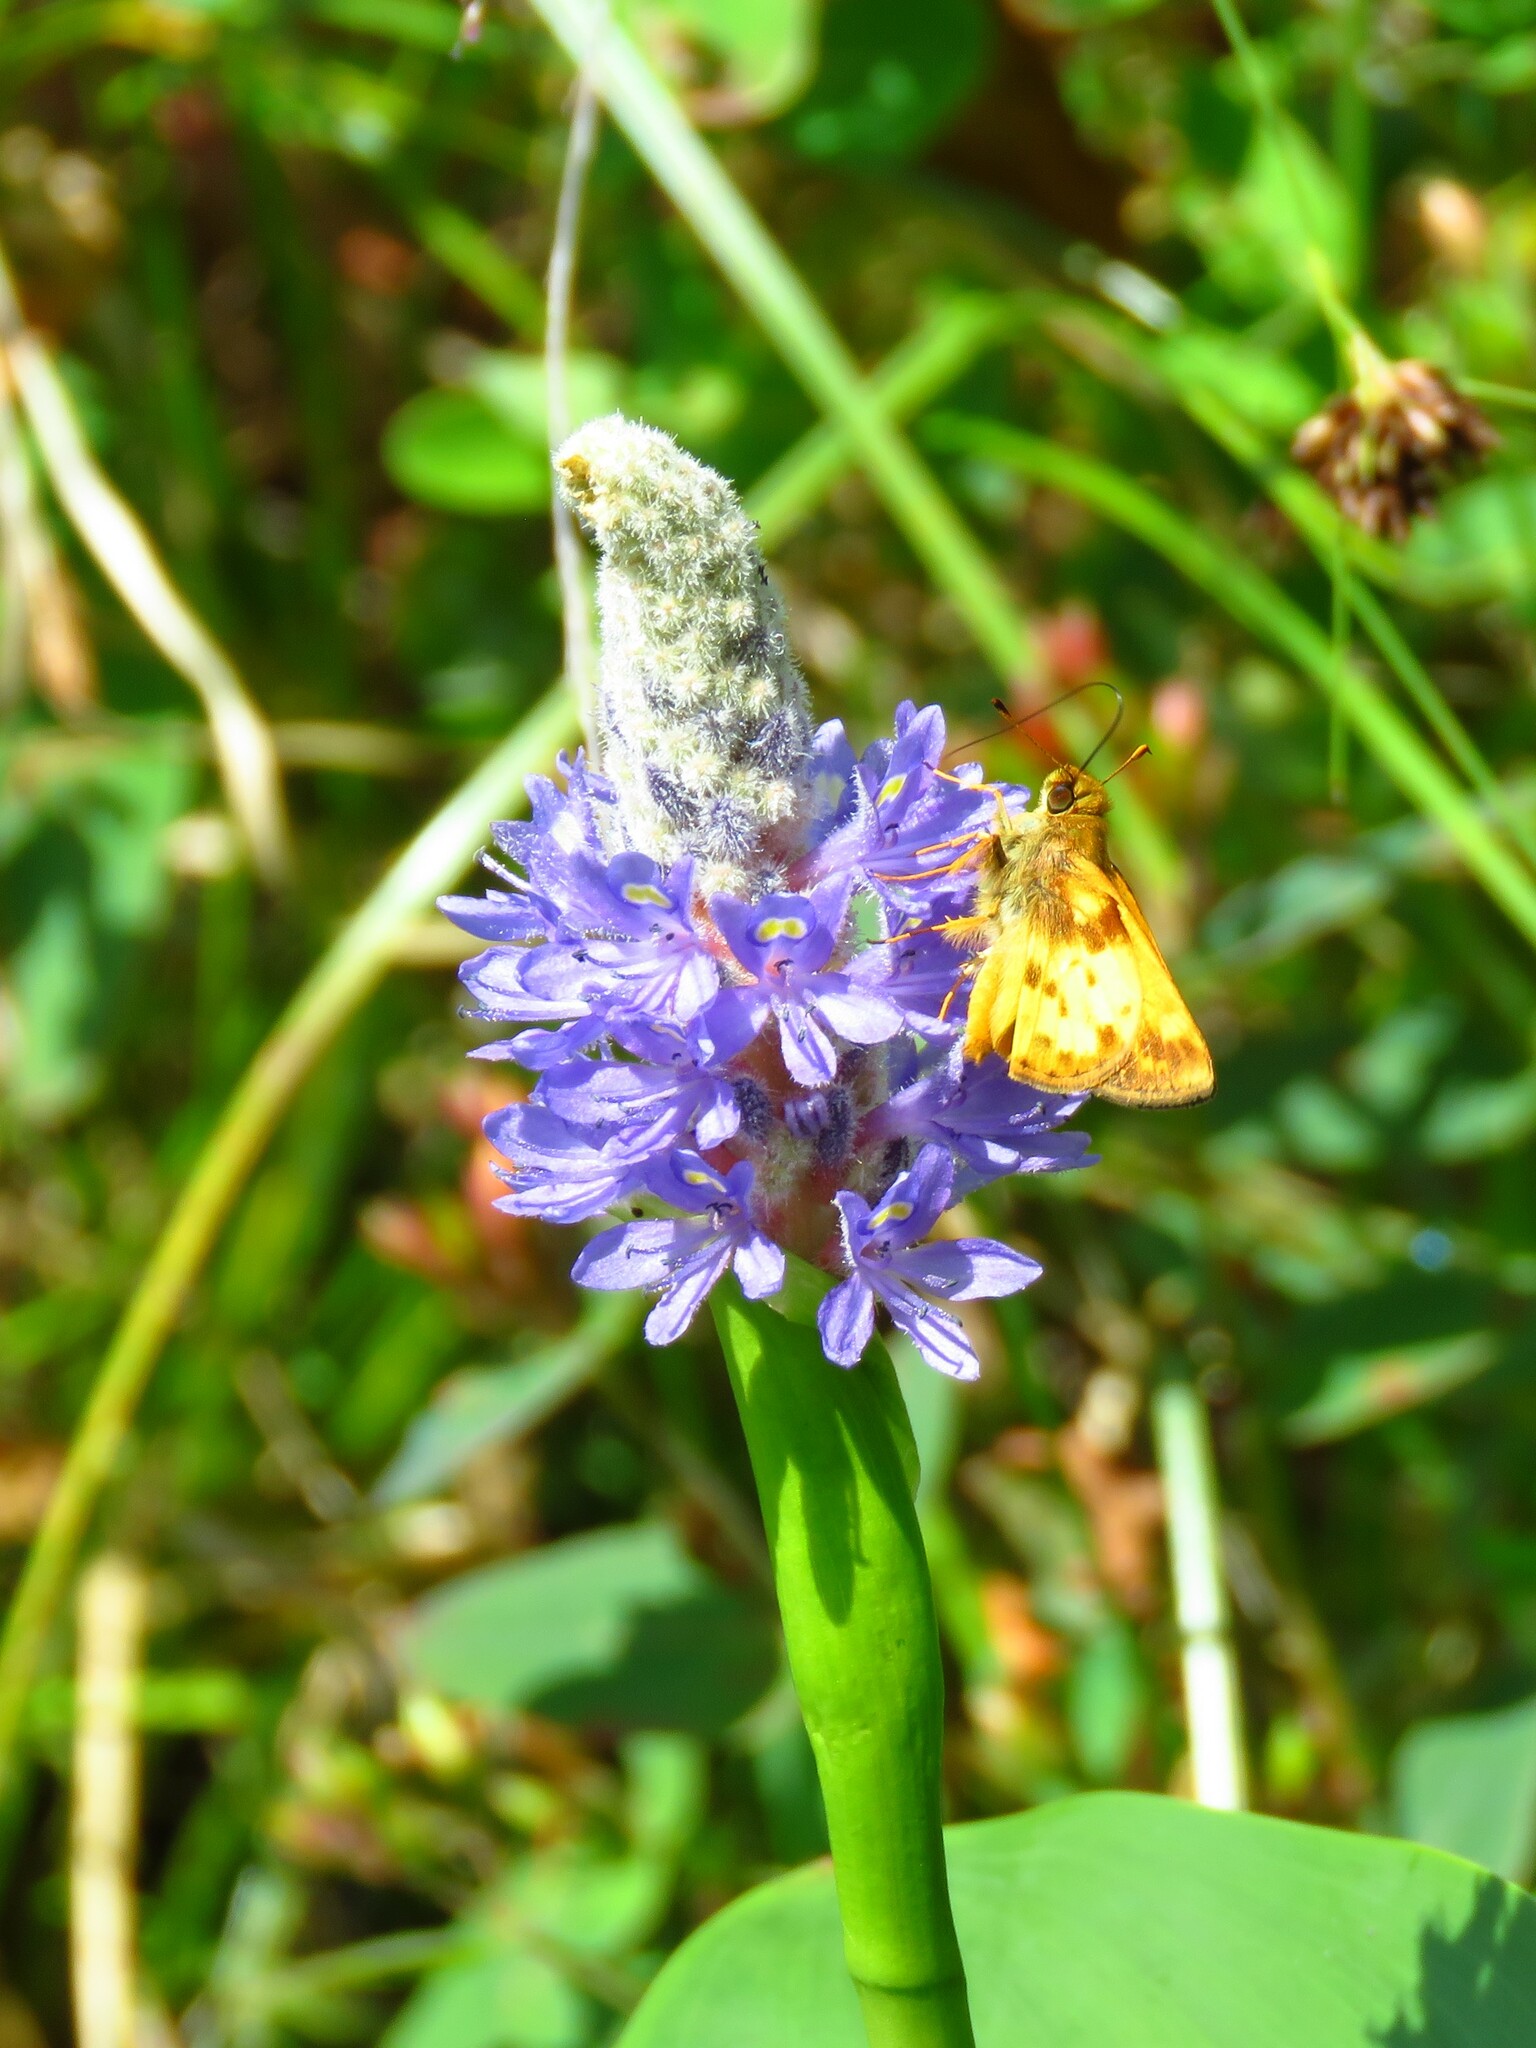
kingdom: Plantae
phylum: Tracheophyta
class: Liliopsida
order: Commelinales
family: Pontederiaceae
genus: Pontederia
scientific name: Pontederia cordata
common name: Pickerelweed
